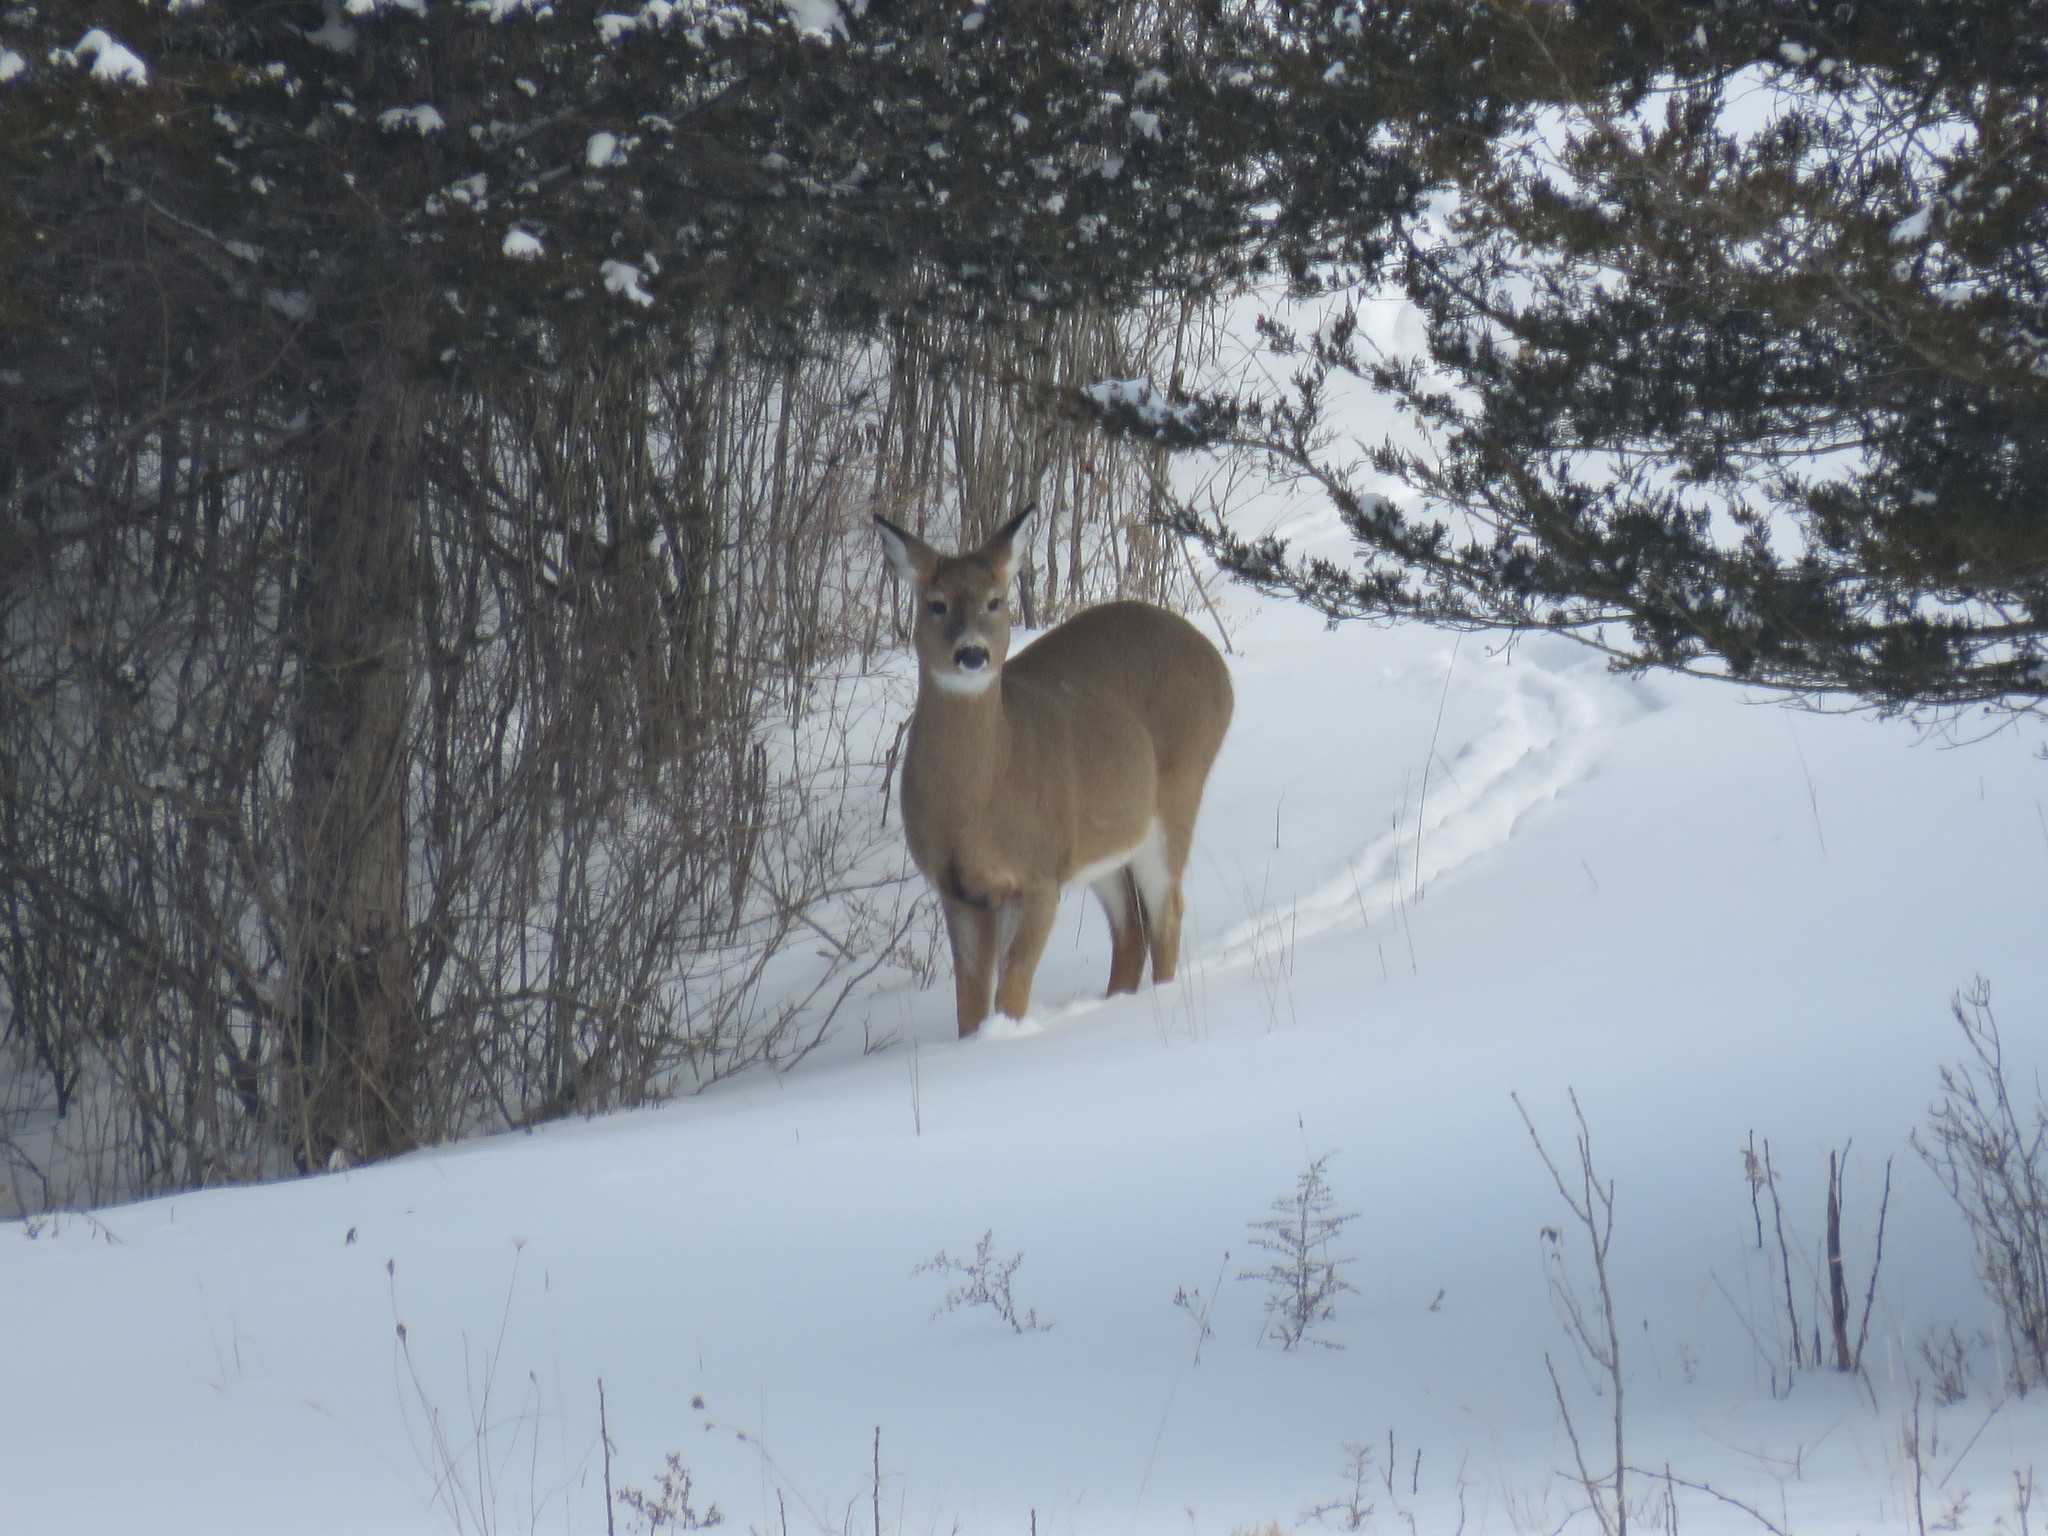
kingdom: Animalia
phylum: Chordata
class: Mammalia
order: Artiodactyla
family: Cervidae
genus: Odocoileus
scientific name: Odocoileus virginianus
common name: White-tailed deer
